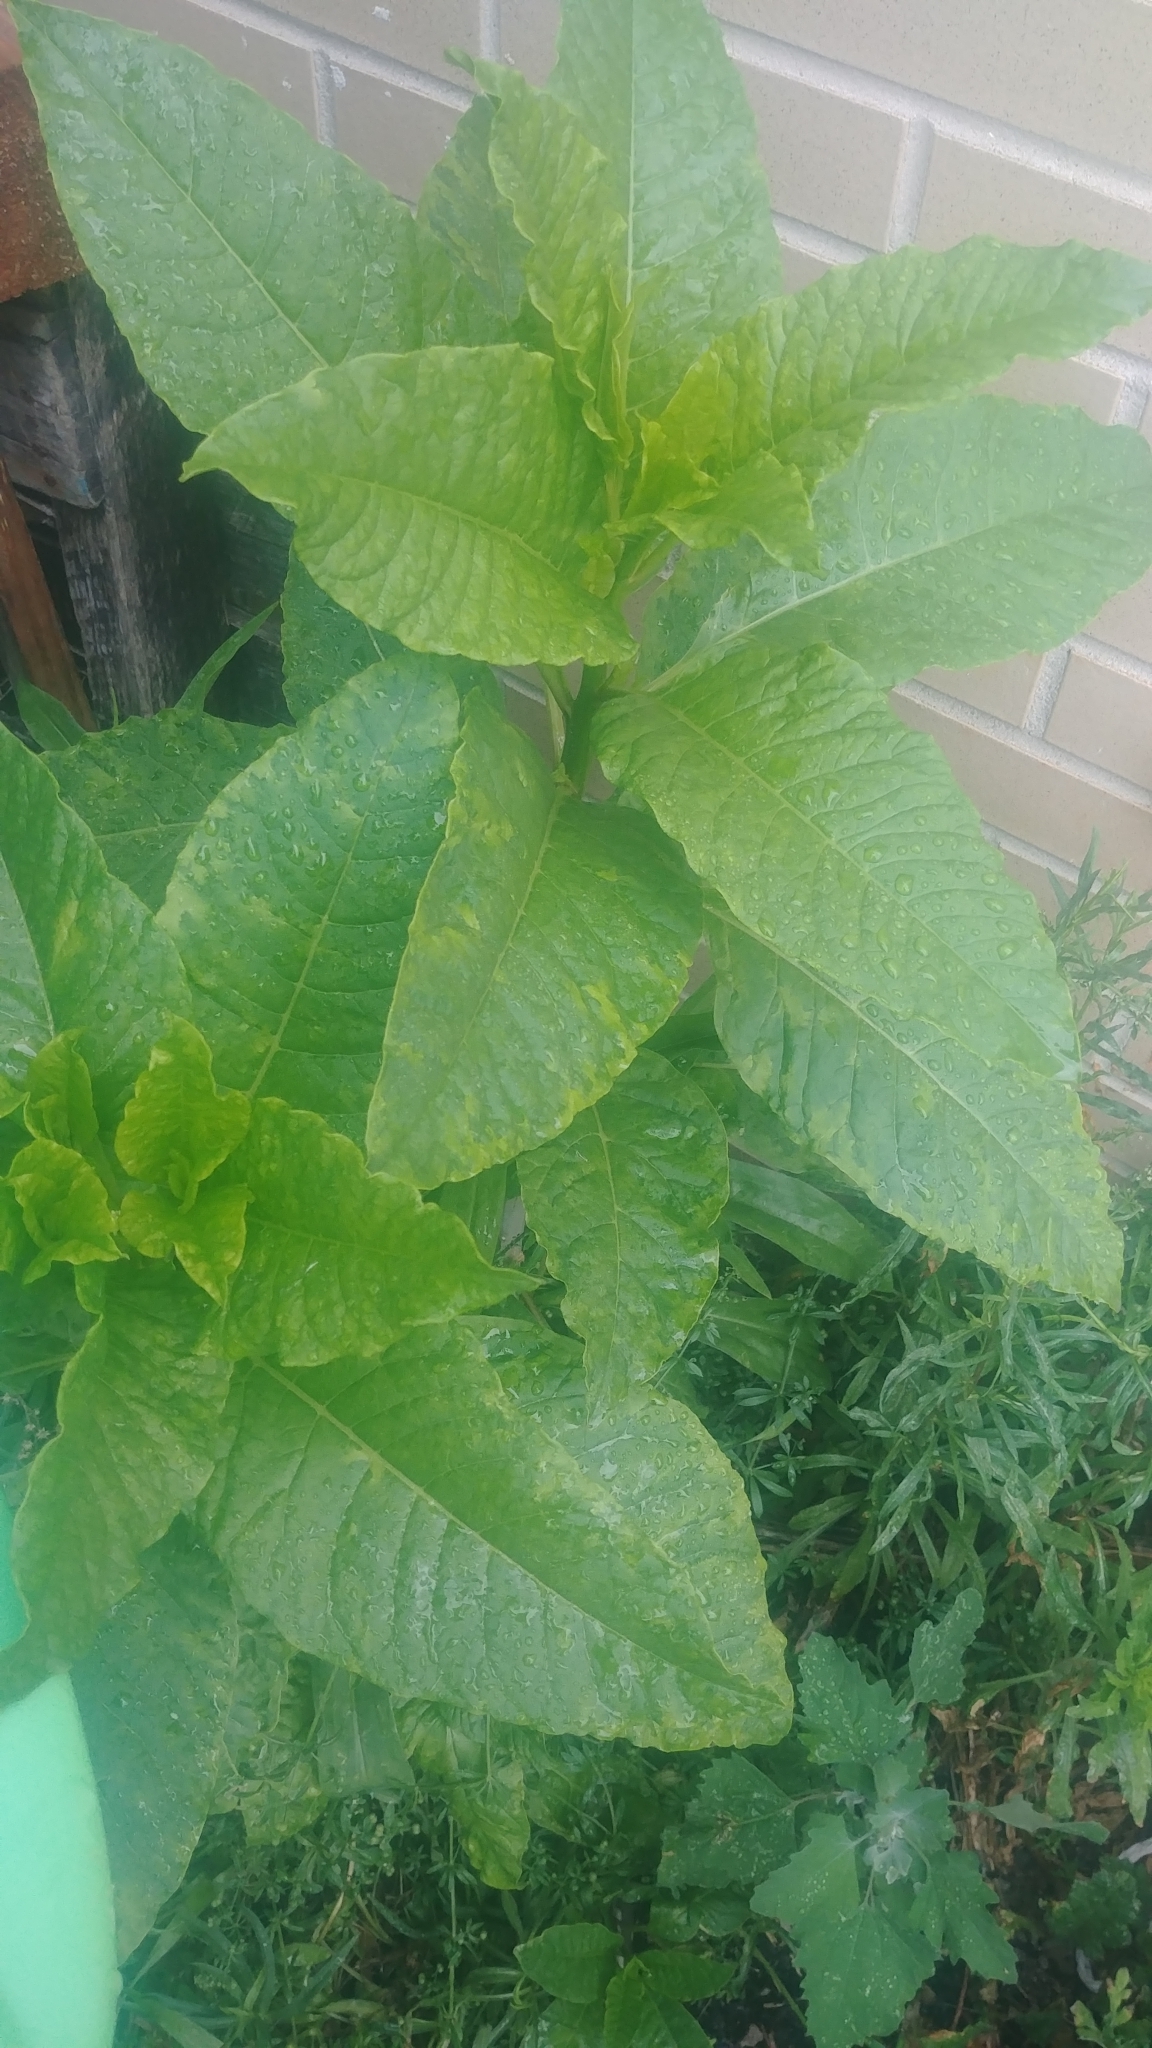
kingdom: Plantae
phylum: Tracheophyta
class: Magnoliopsida
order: Caryophyllales
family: Phytolaccaceae
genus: Phytolacca
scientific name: Phytolacca americana
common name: American pokeweed
